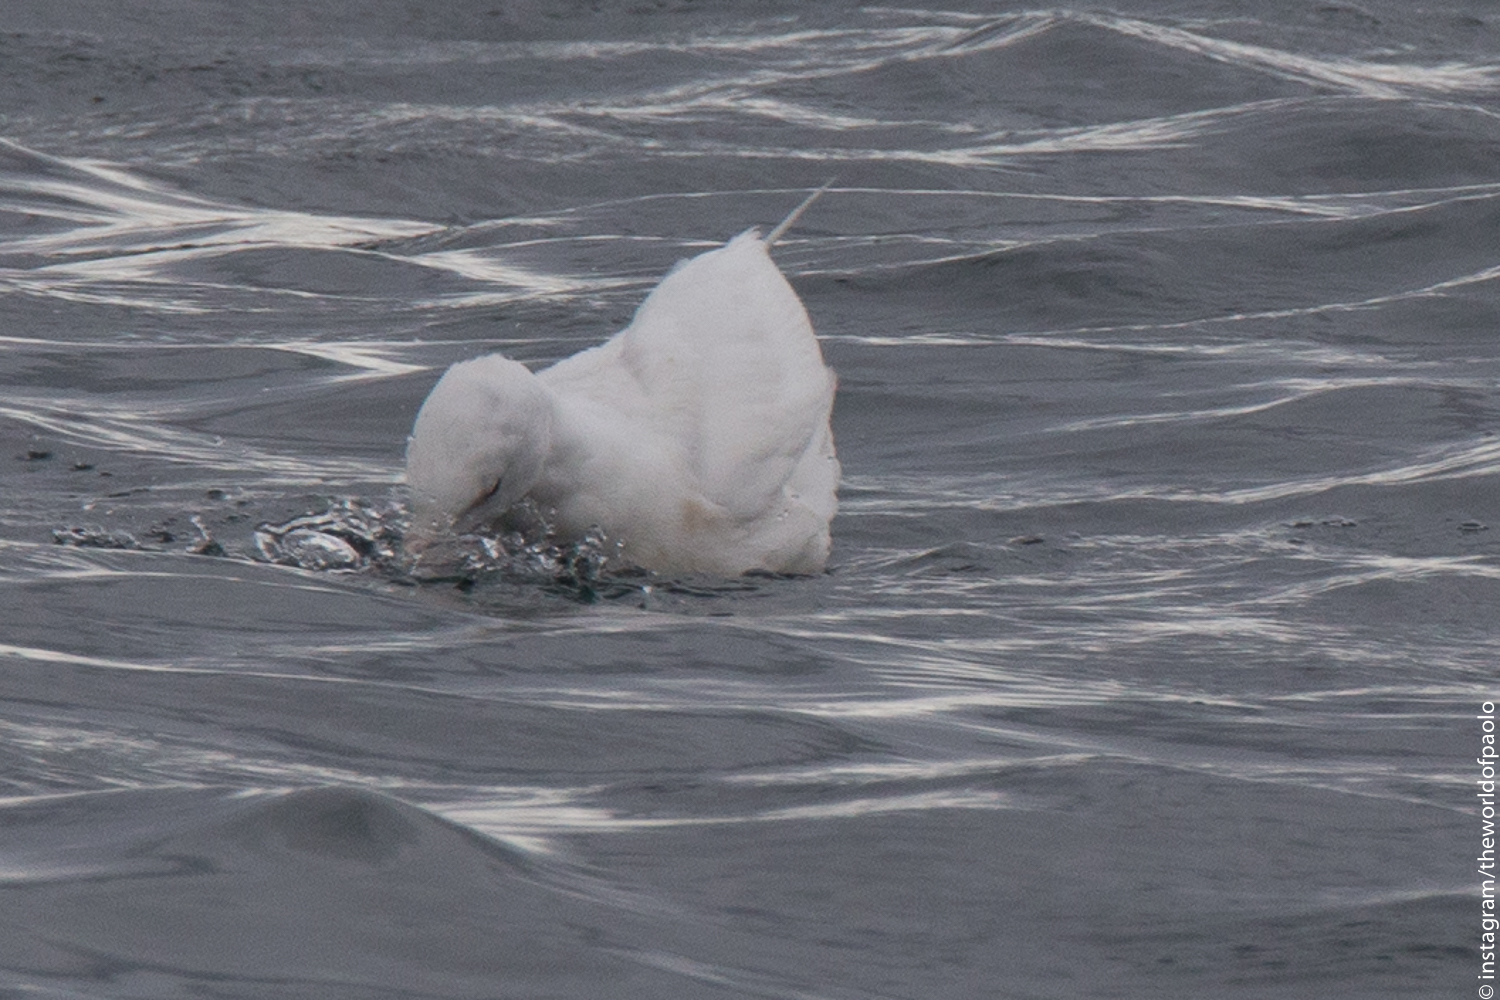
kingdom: Animalia
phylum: Chordata
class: Aves
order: Charadriiformes
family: Laridae
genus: Larus
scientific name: Larus hyperboreus
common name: Glaucous gull
